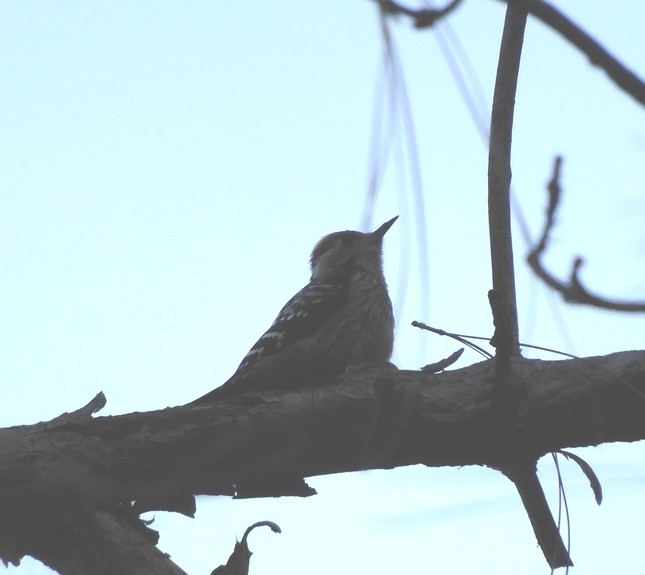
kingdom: Animalia
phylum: Chordata
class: Aves
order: Piciformes
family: Picidae
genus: Dendrocoptes
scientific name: Dendrocoptes auriceps
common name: Brown-fronted woodpecker
